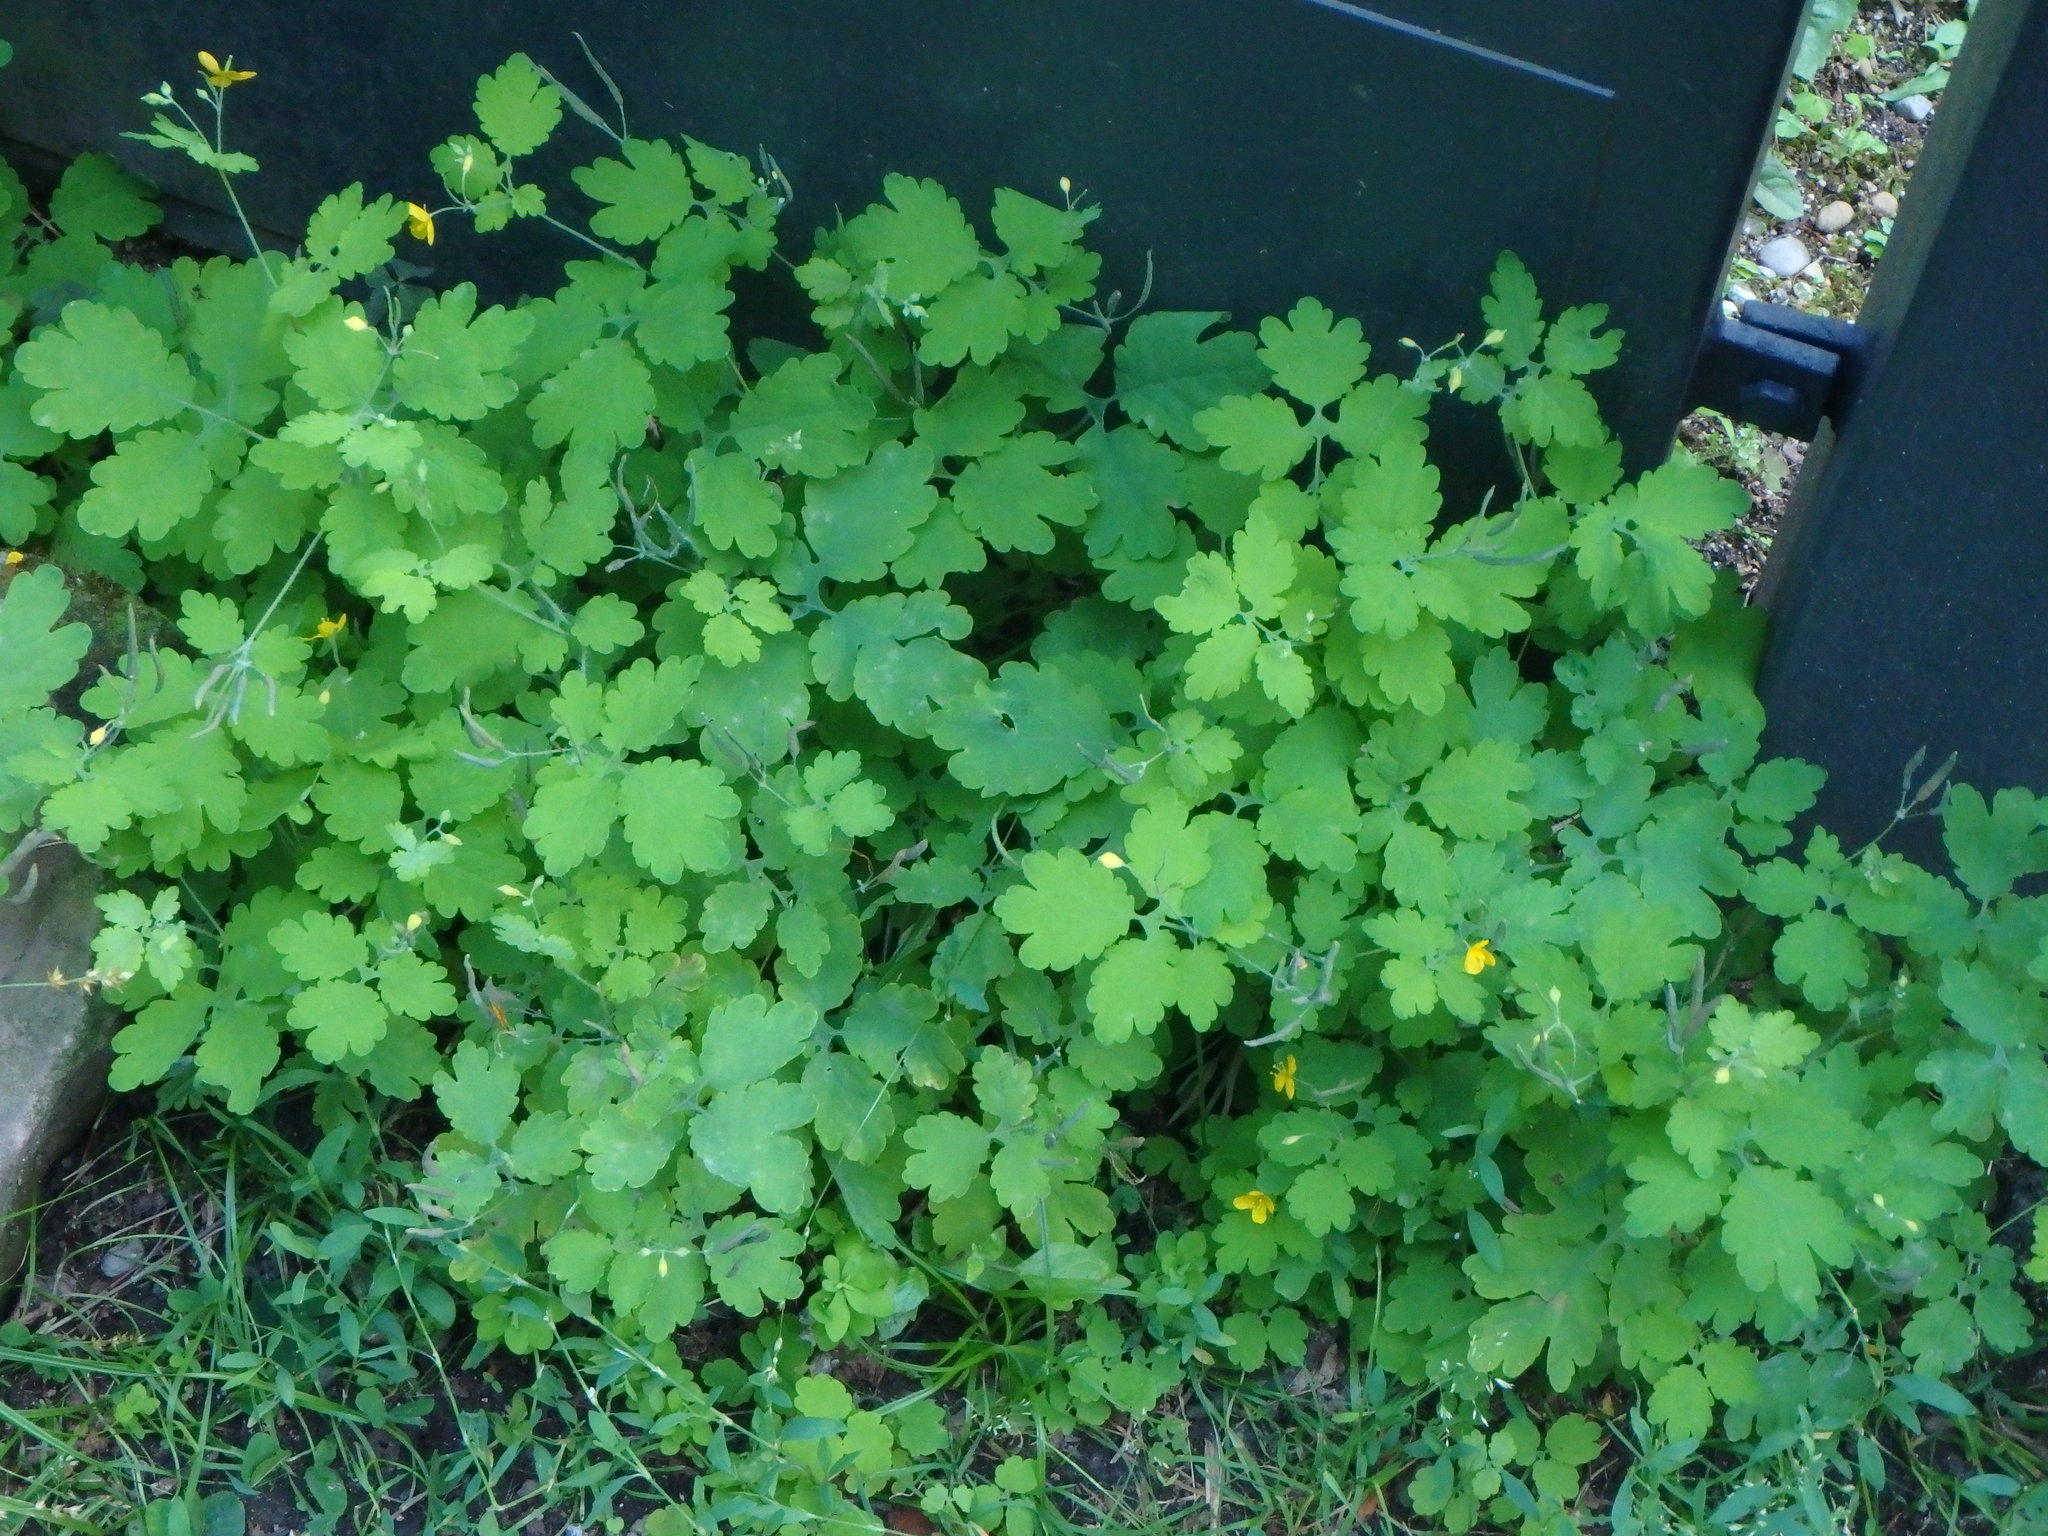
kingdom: Plantae
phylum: Tracheophyta
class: Magnoliopsida
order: Ranunculales
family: Papaveraceae
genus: Chelidonium
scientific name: Chelidonium majus
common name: Greater celandine
